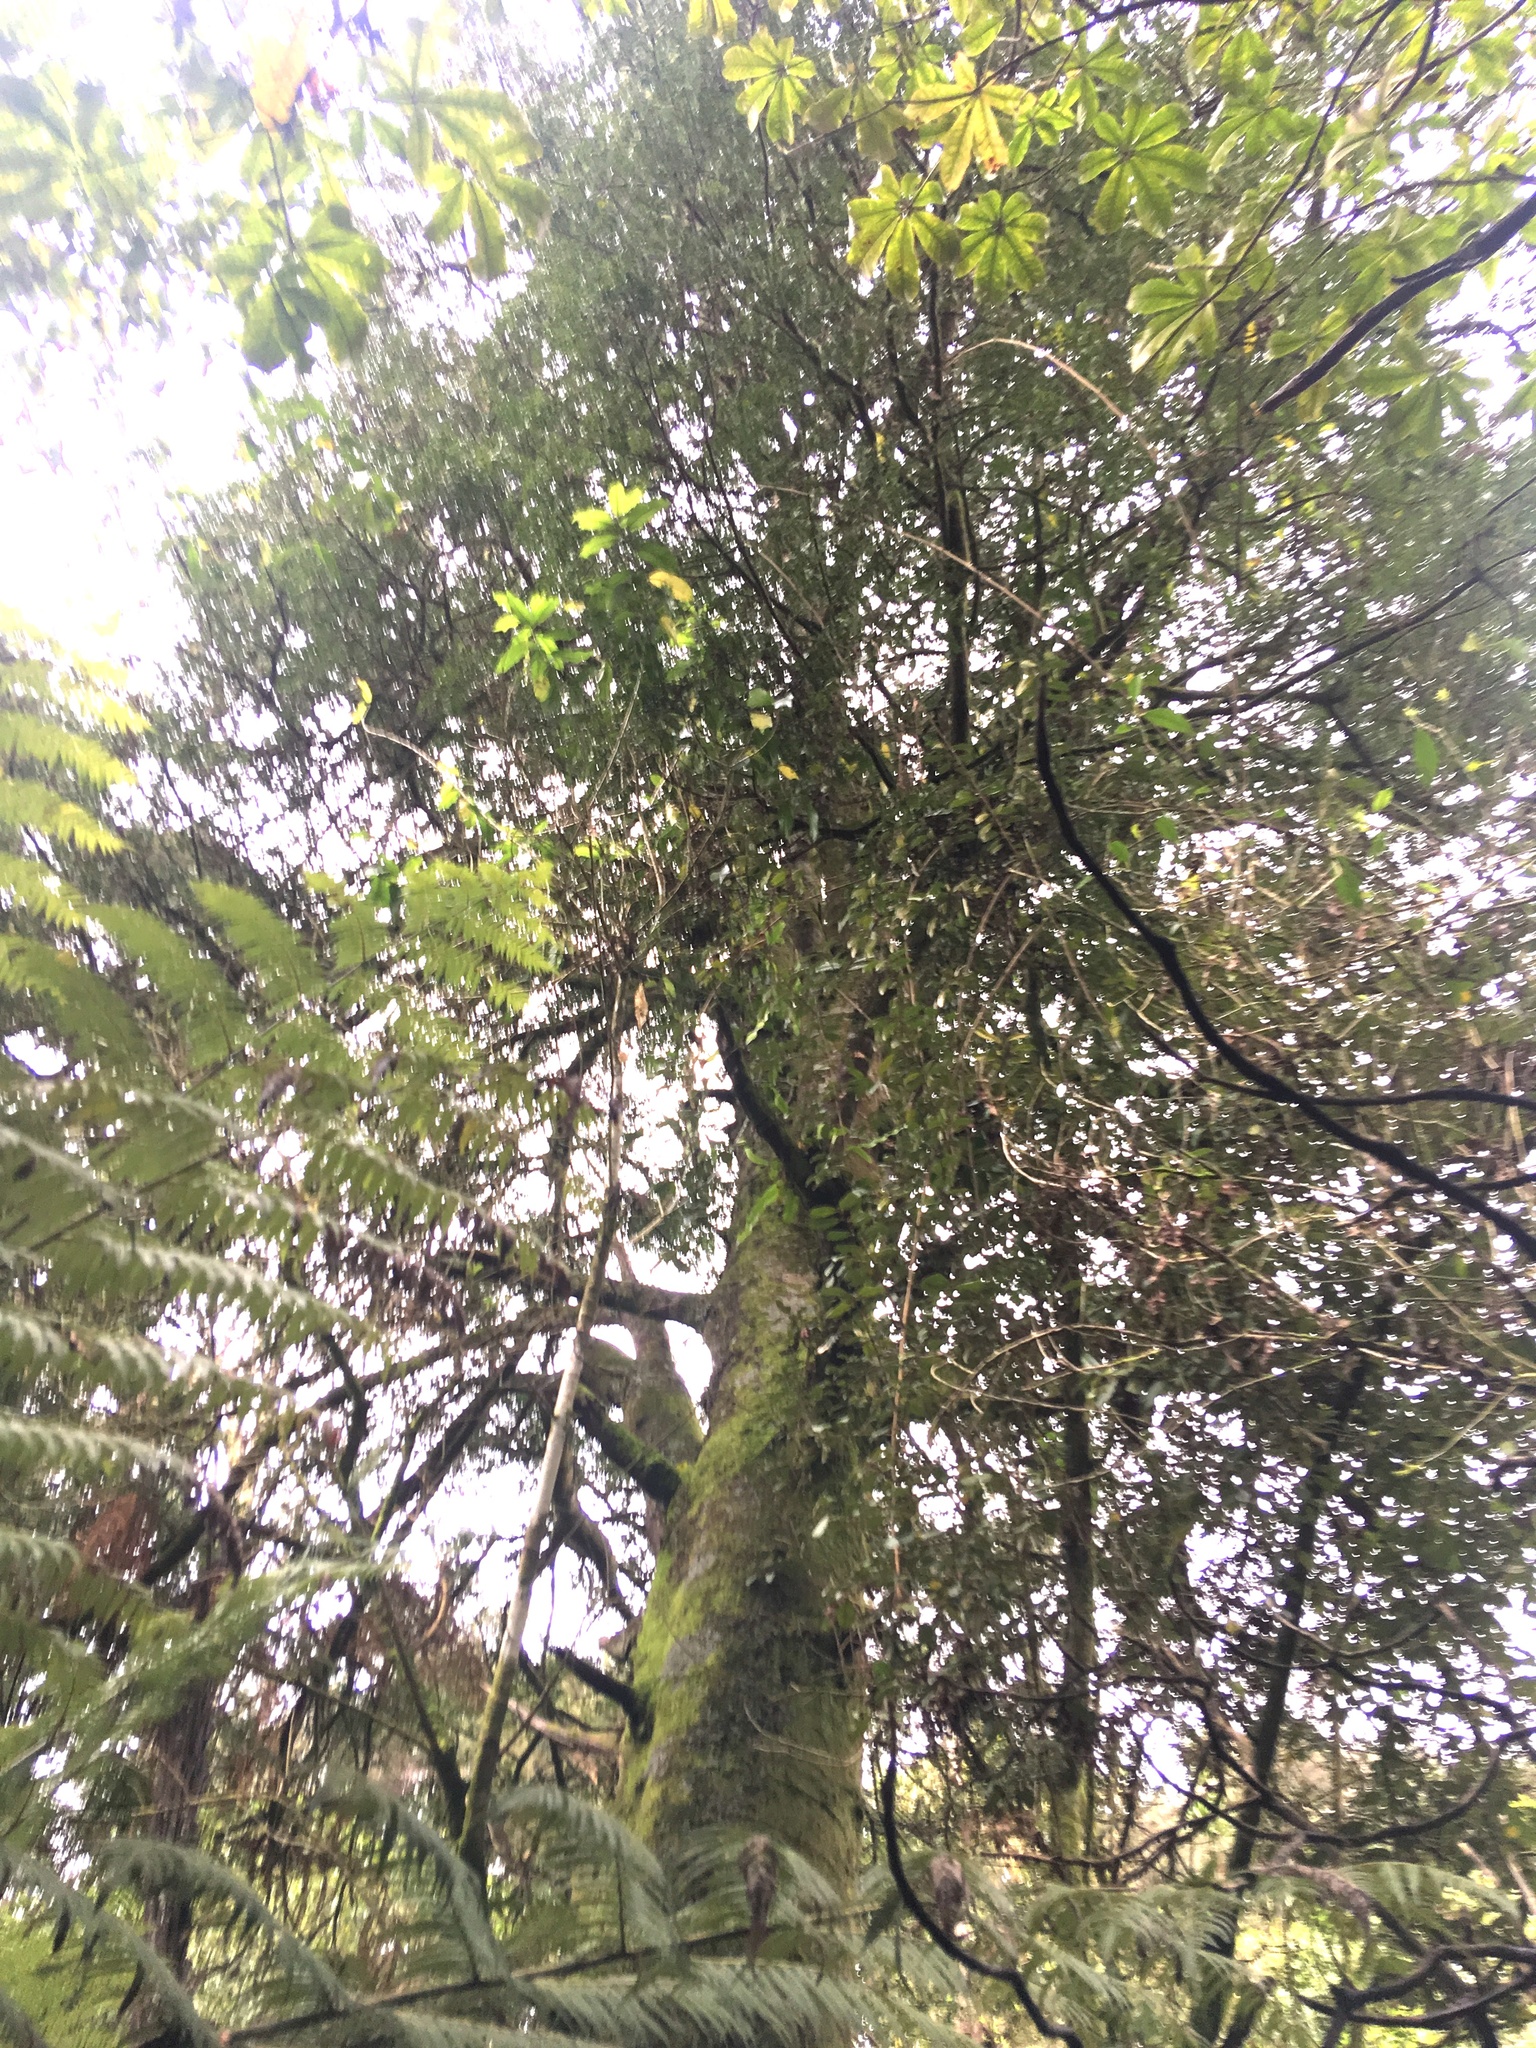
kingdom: Plantae
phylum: Tracheophyta
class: Magnoliopsida
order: Apiales
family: Araliaceae
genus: Schefflera
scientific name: Schefflera digitata
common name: Pate
